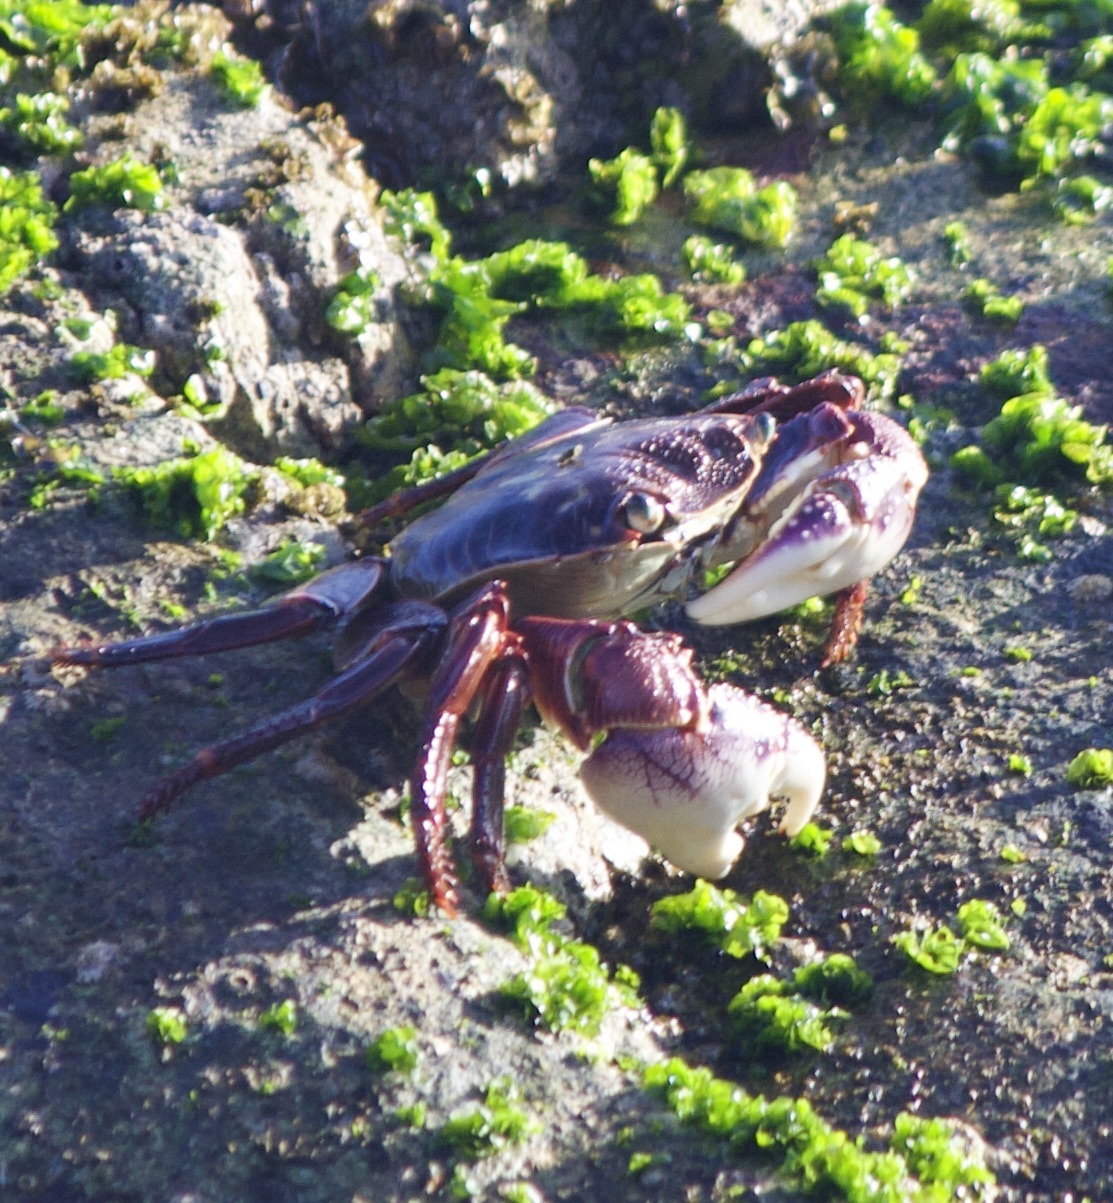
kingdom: Animalia
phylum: Arthropoda
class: Malacostraca
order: Decapoda
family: Grapsidae
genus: Leptograpsus
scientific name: Leptograpsus variegatus
